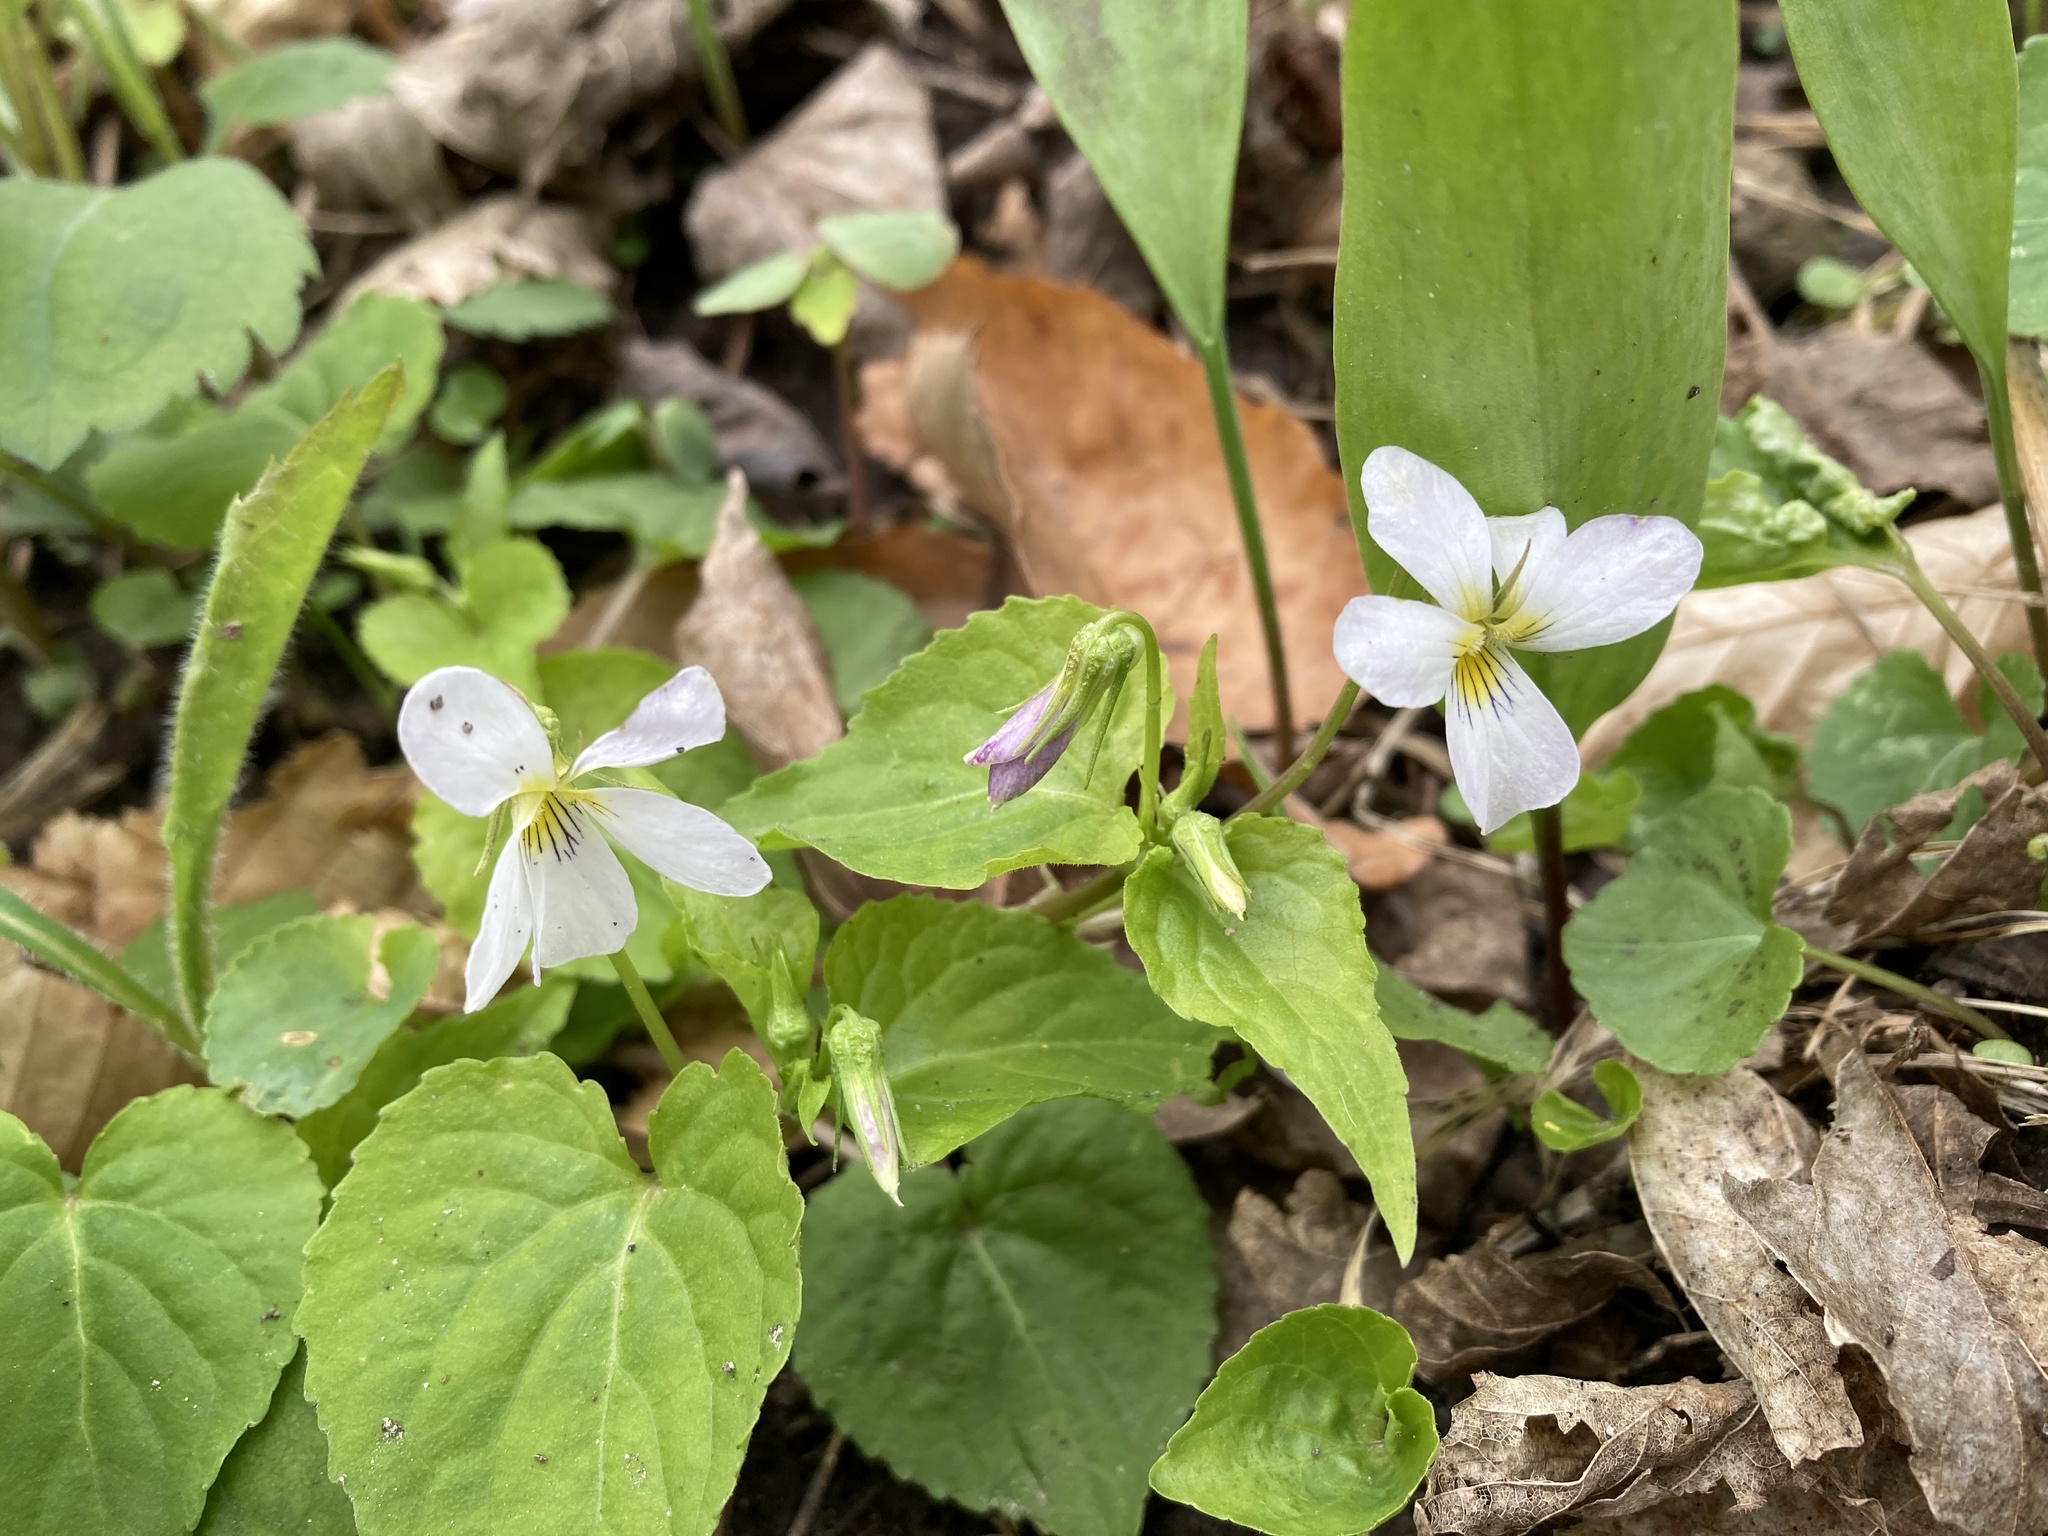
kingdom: Plantae
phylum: Tracheophyta
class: Magnoliopsida
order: Malpighiales
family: Violaceae
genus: Viola
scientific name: Viola canadensis
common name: Canada violet
